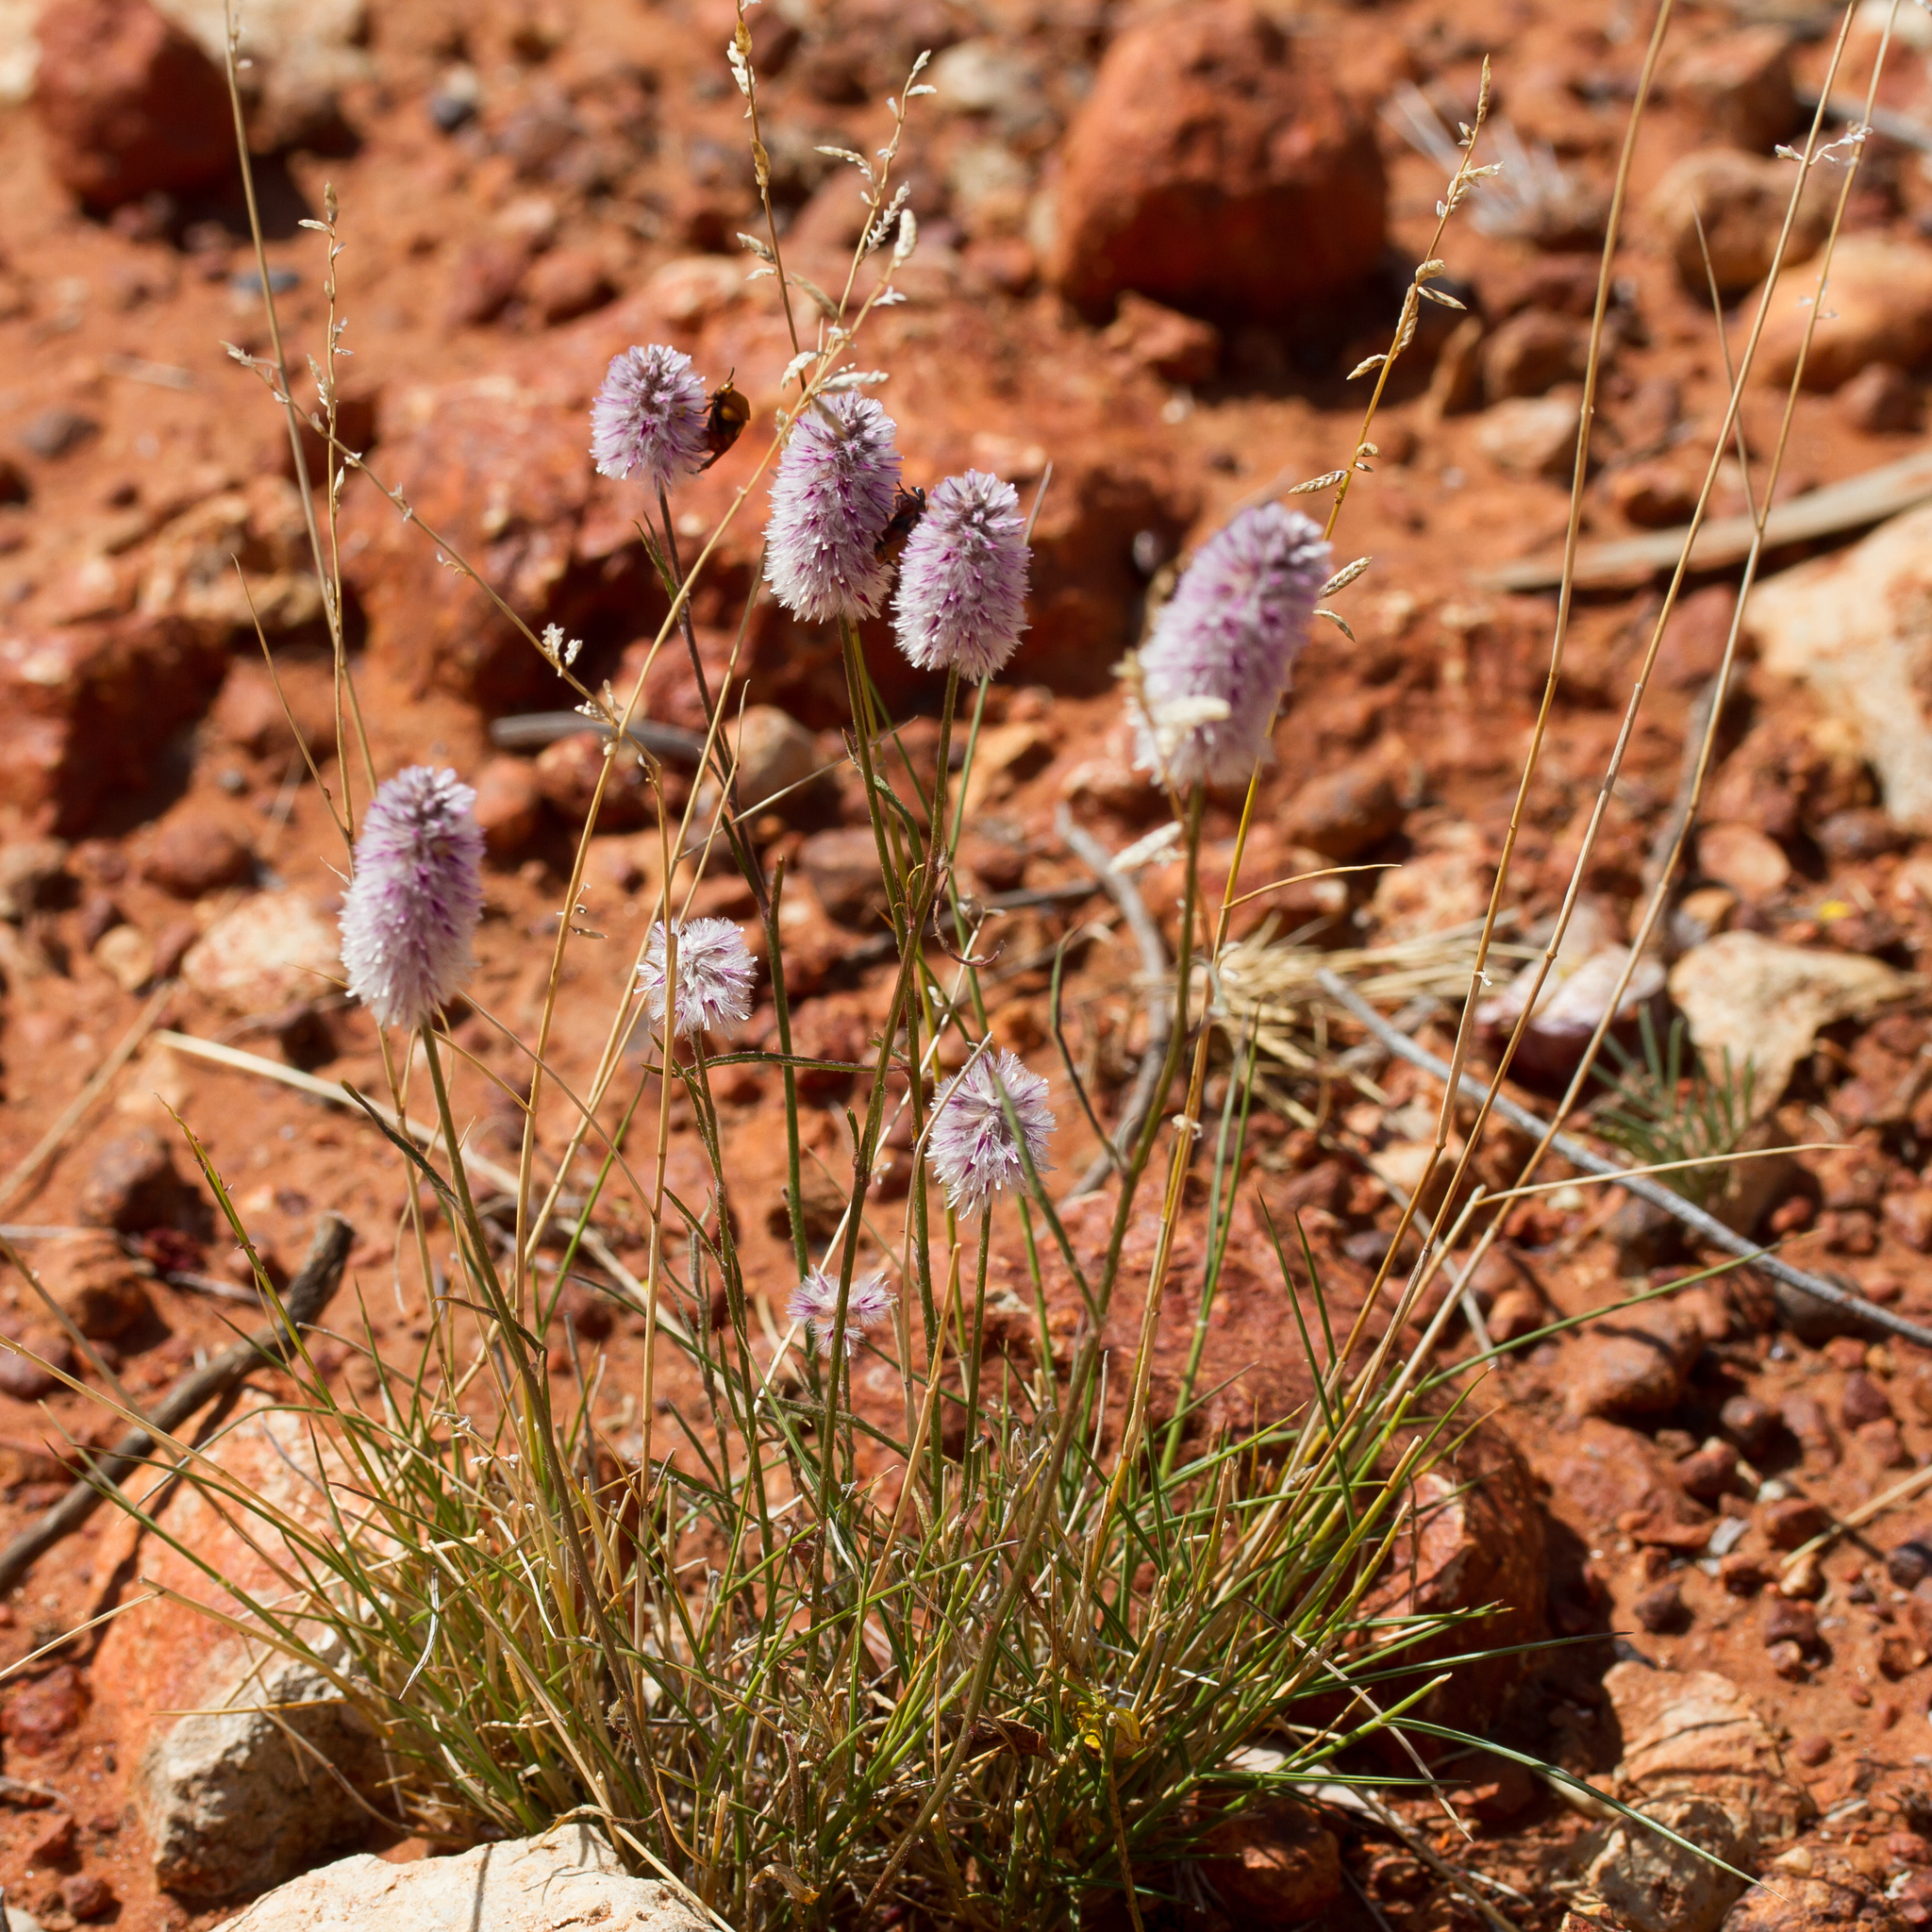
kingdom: Plantae
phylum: Tracheophyta
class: Magnoliopsida
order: Caryophyllales
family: Amaranthaceae
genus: Ptilotus
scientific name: Ptilotus leucocoma
